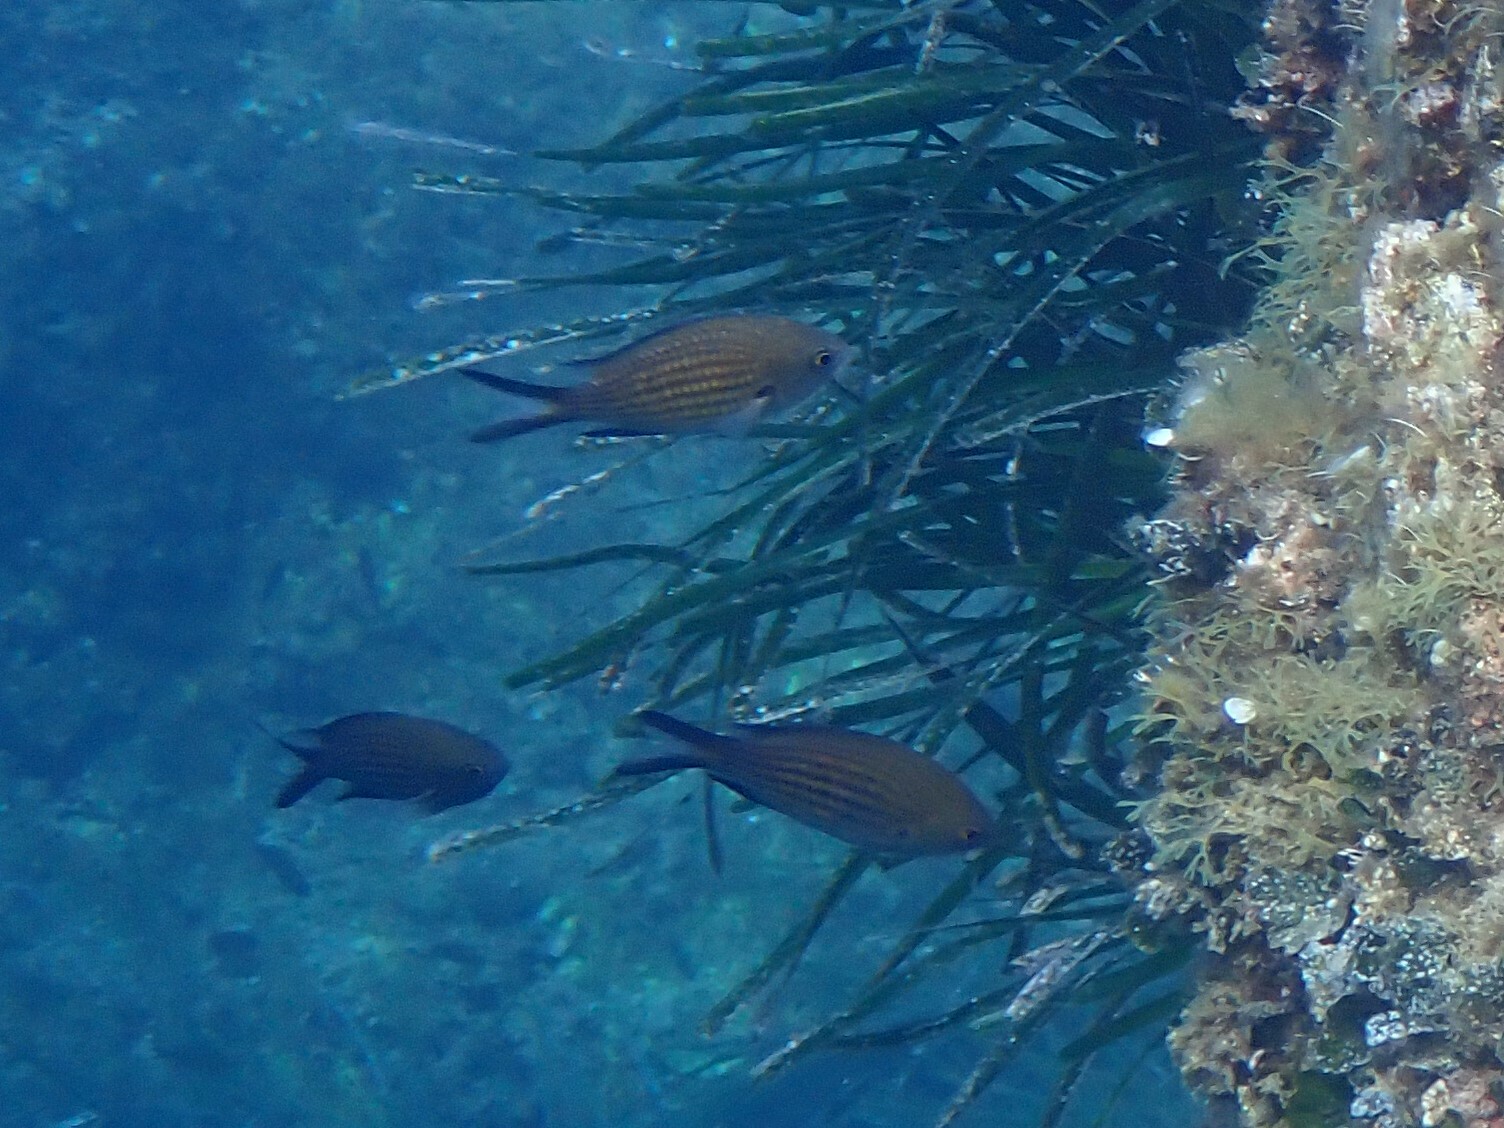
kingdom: Animalia
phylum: Chordata
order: Perciformes
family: Pomacentridae
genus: Chromis
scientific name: Chromis chromis
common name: Damselfish
